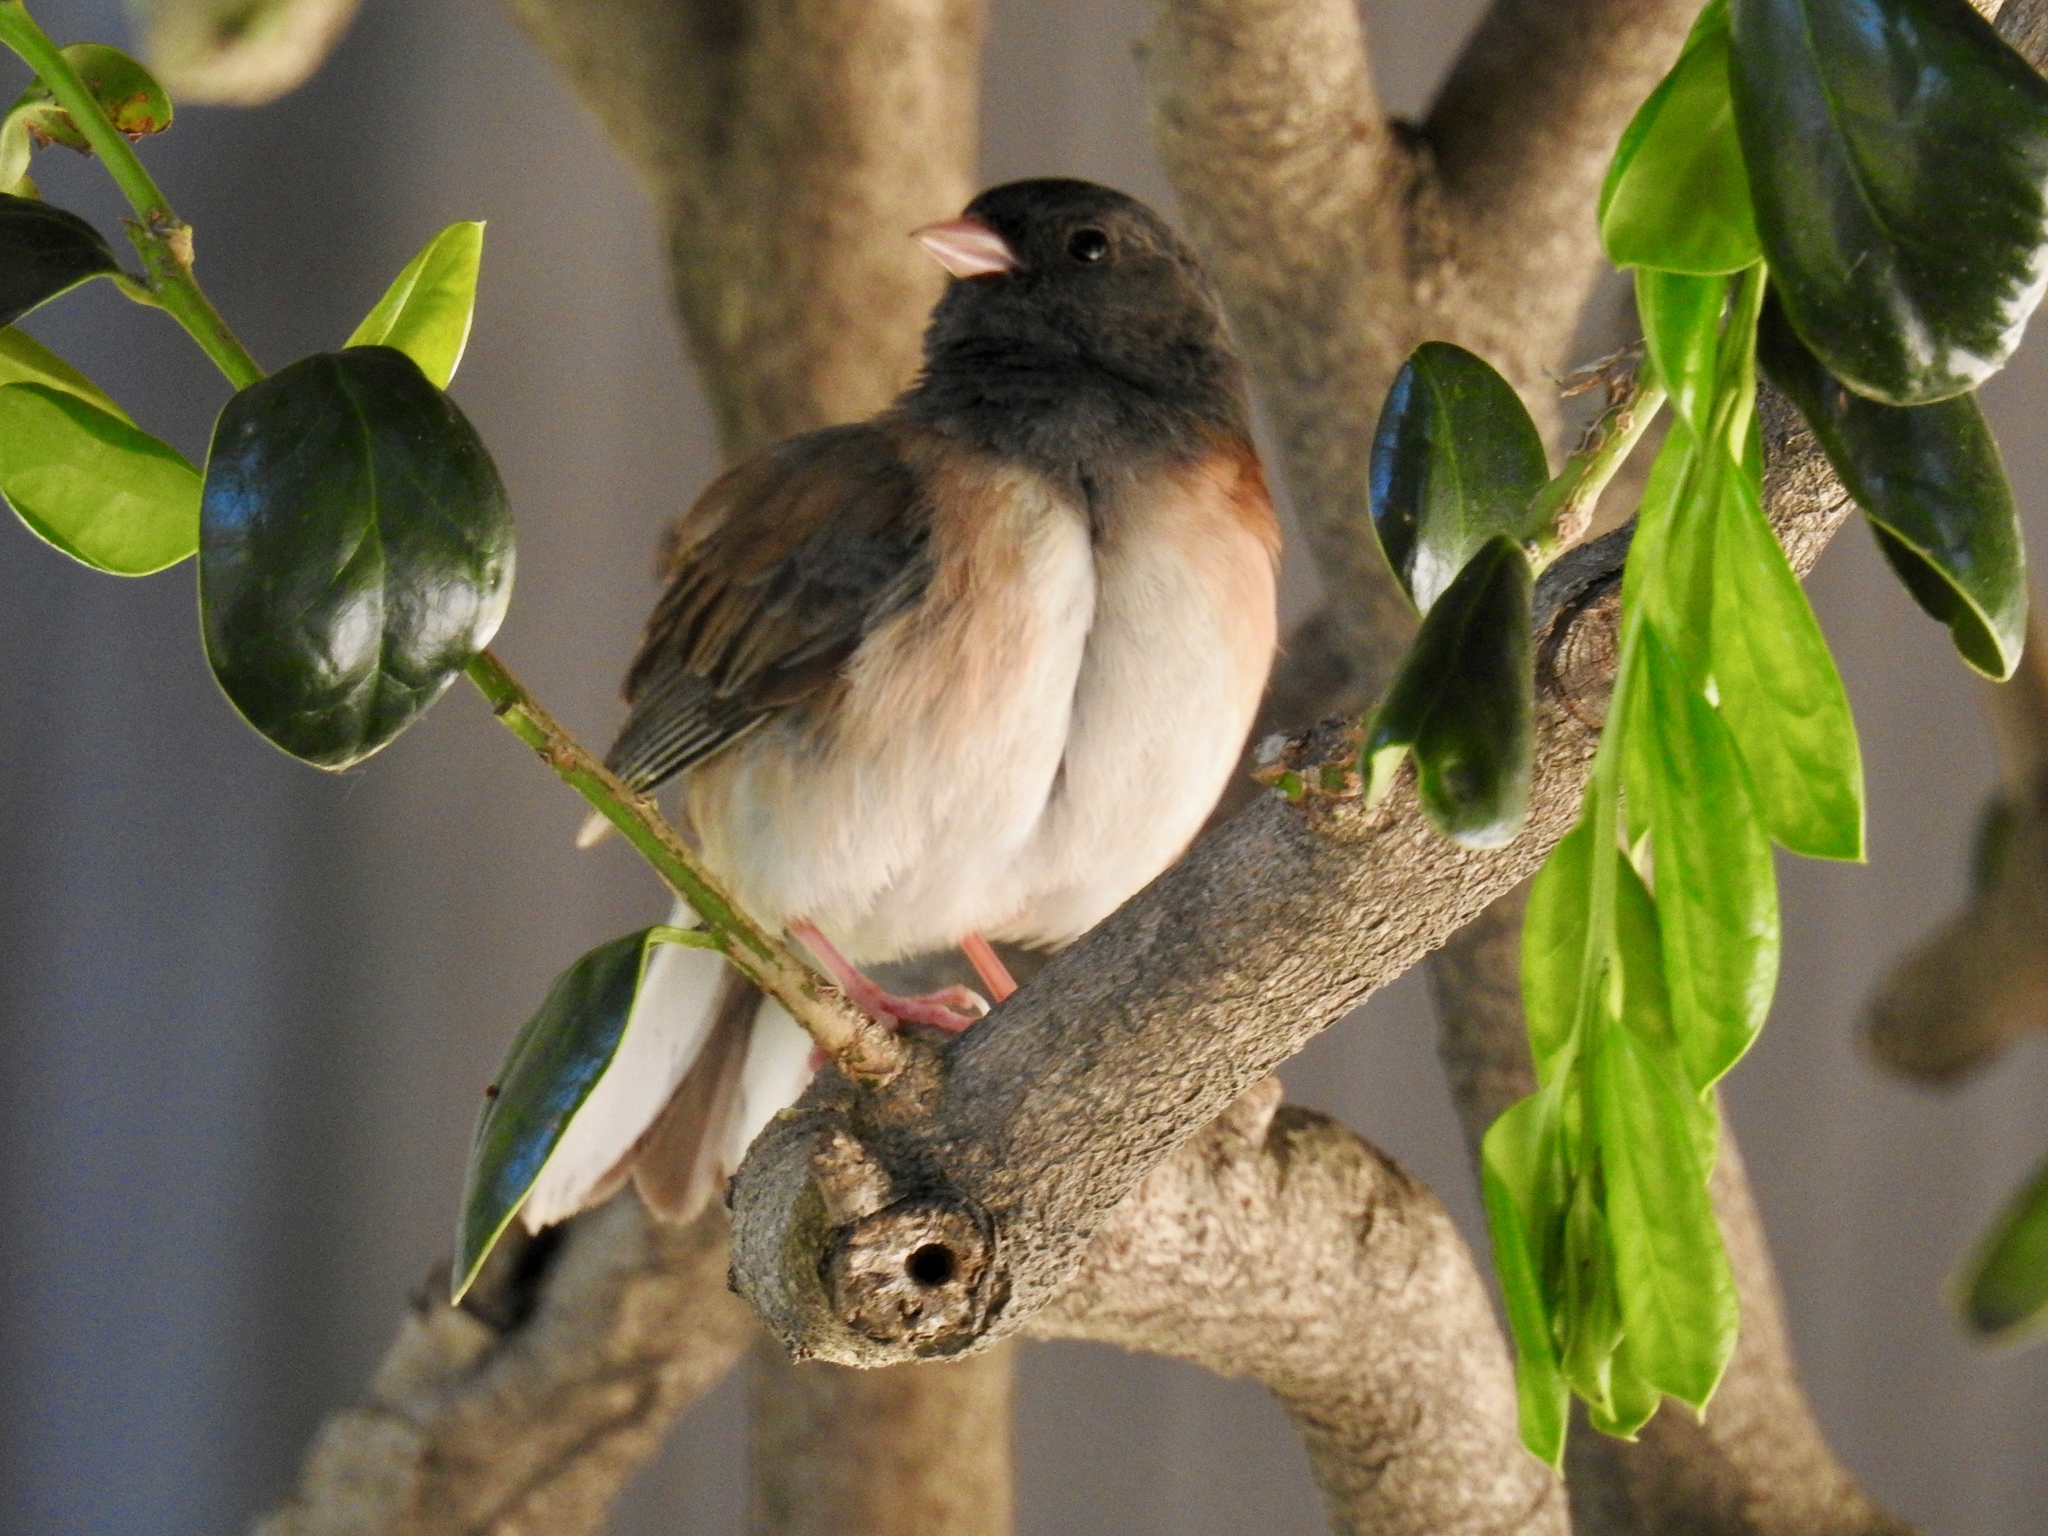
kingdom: Animalia
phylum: Chordata
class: Aves
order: Passeriformes
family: Passerellidae
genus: Junco
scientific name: Junco hyemalis
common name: Dark-eyed junco
